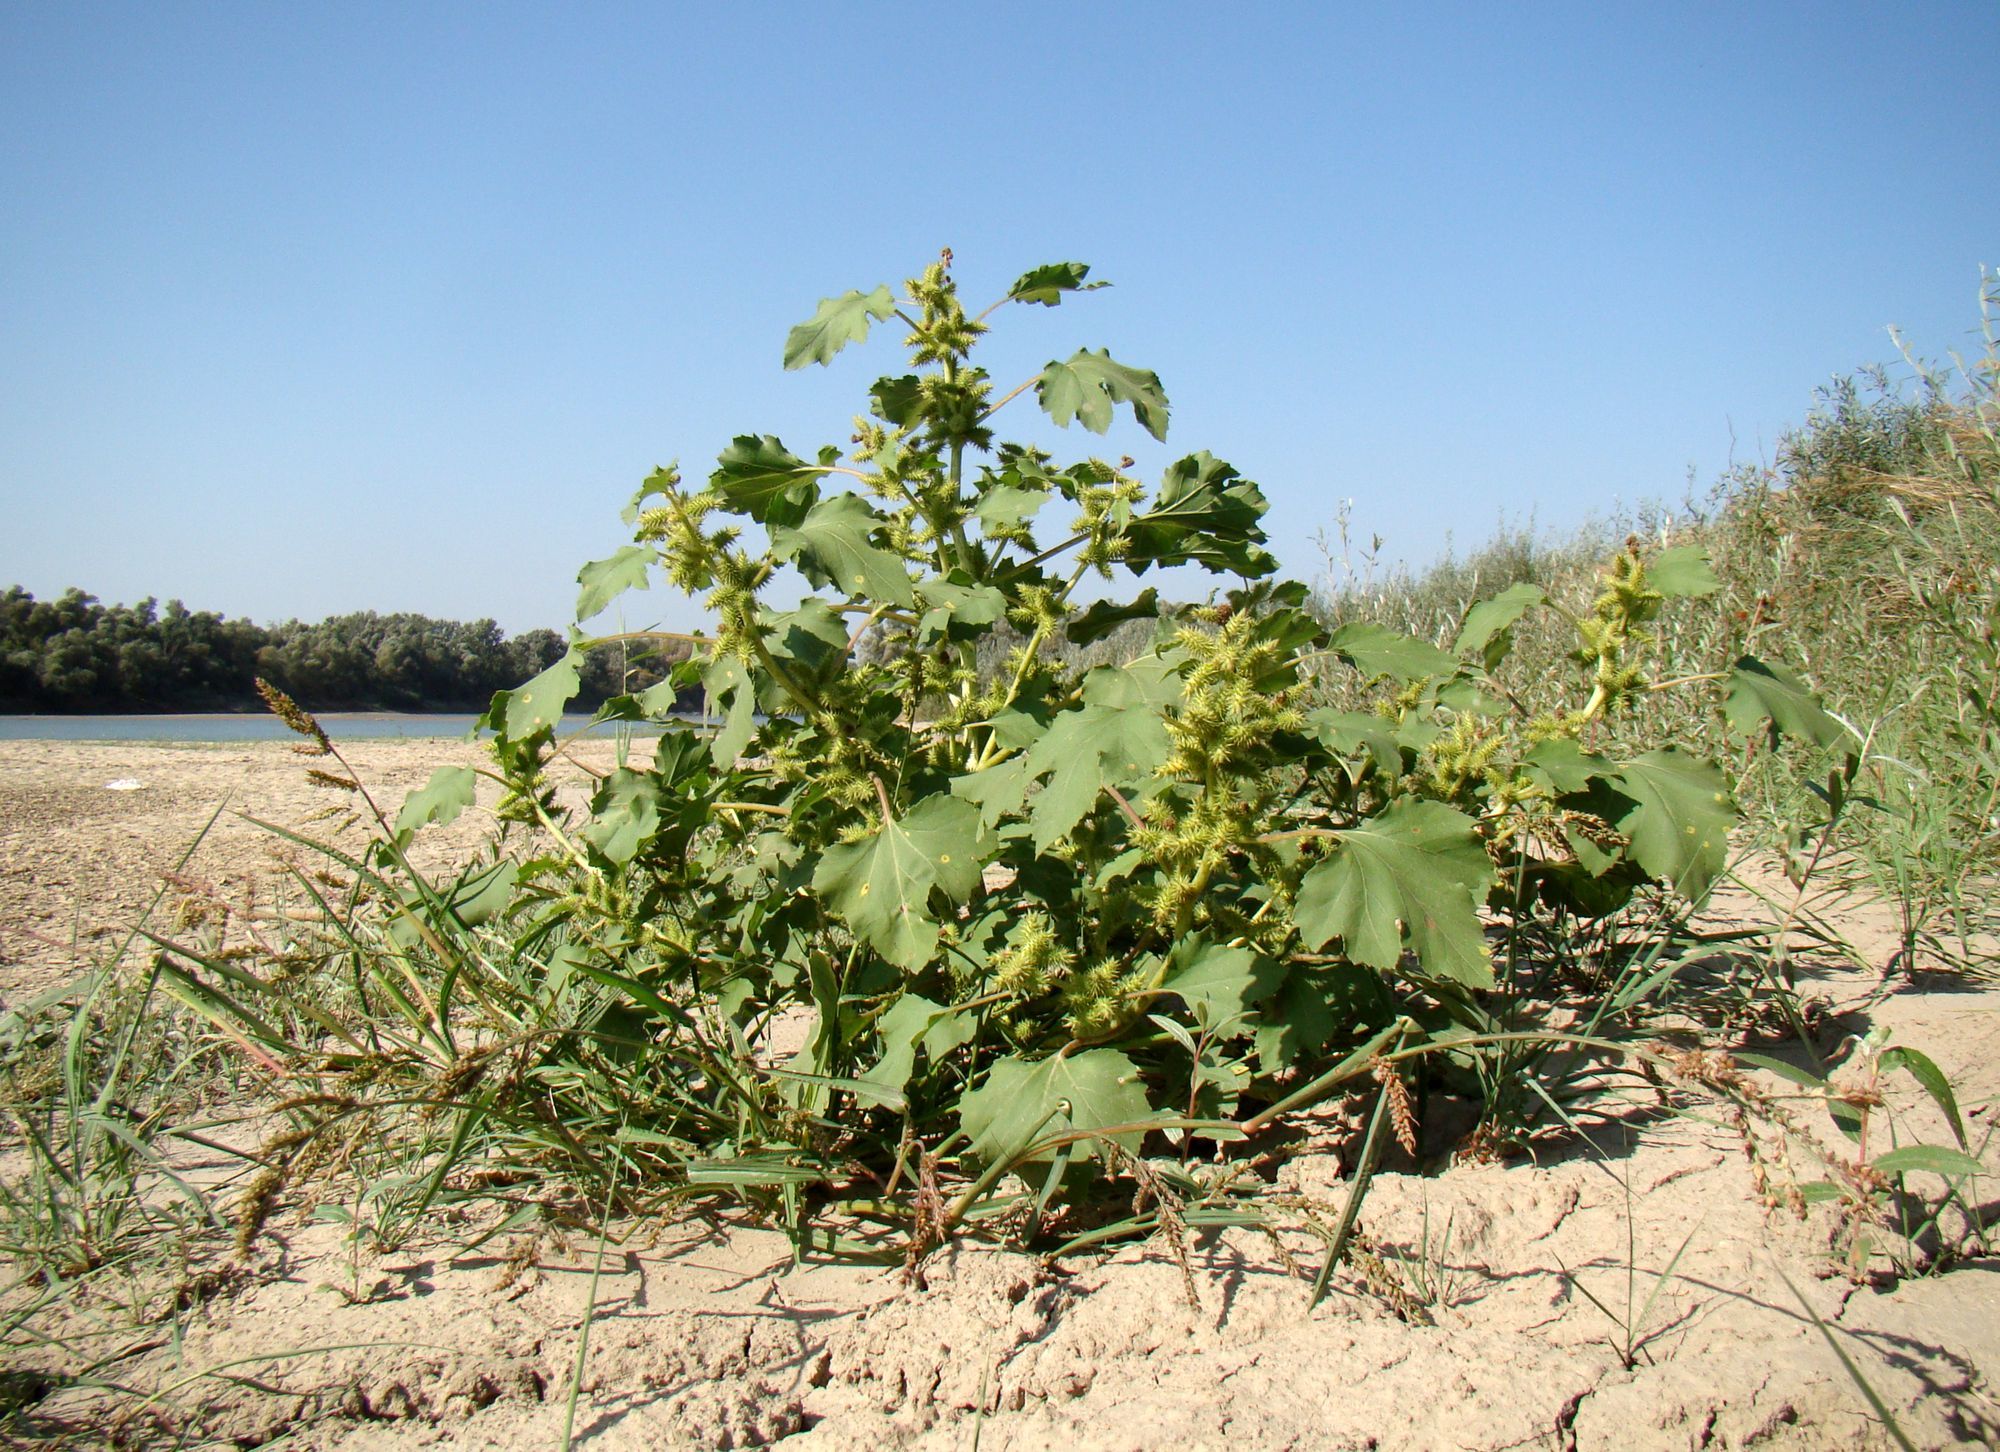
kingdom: Plantae
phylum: Tracheophyta
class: Magnoliopsida
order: Asterales
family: Asteraceae
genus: Xanthium
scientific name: Xanthium orientale
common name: Californian burr
